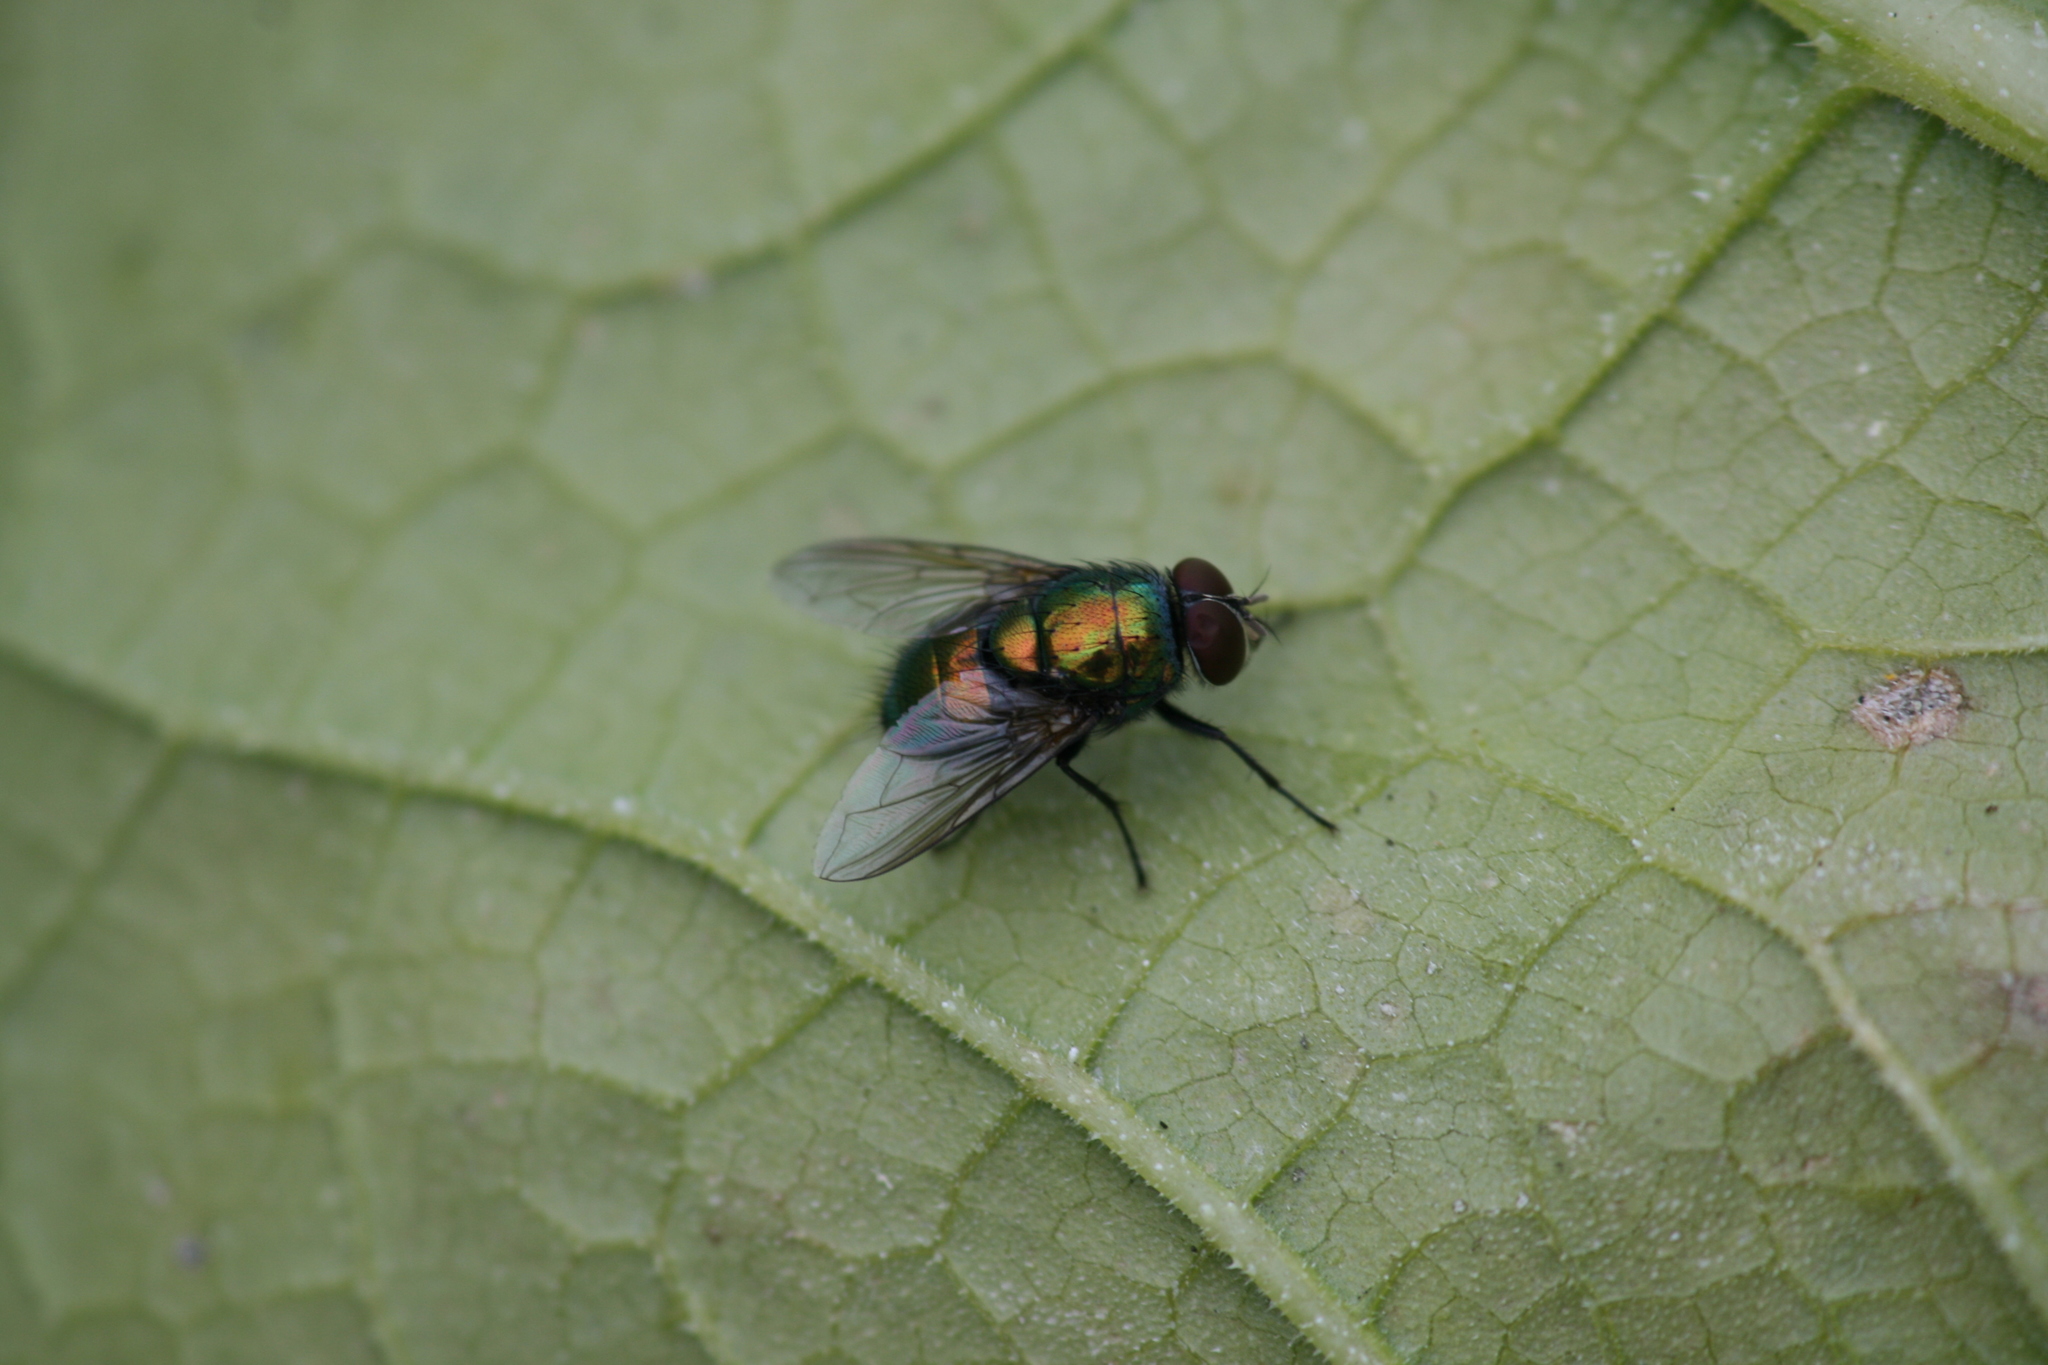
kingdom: Animalia
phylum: Arthropoda
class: Insecta
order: Diptera
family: Calliphoridae
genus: Lucilia
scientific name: Lucilia caesar
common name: Blow fly
